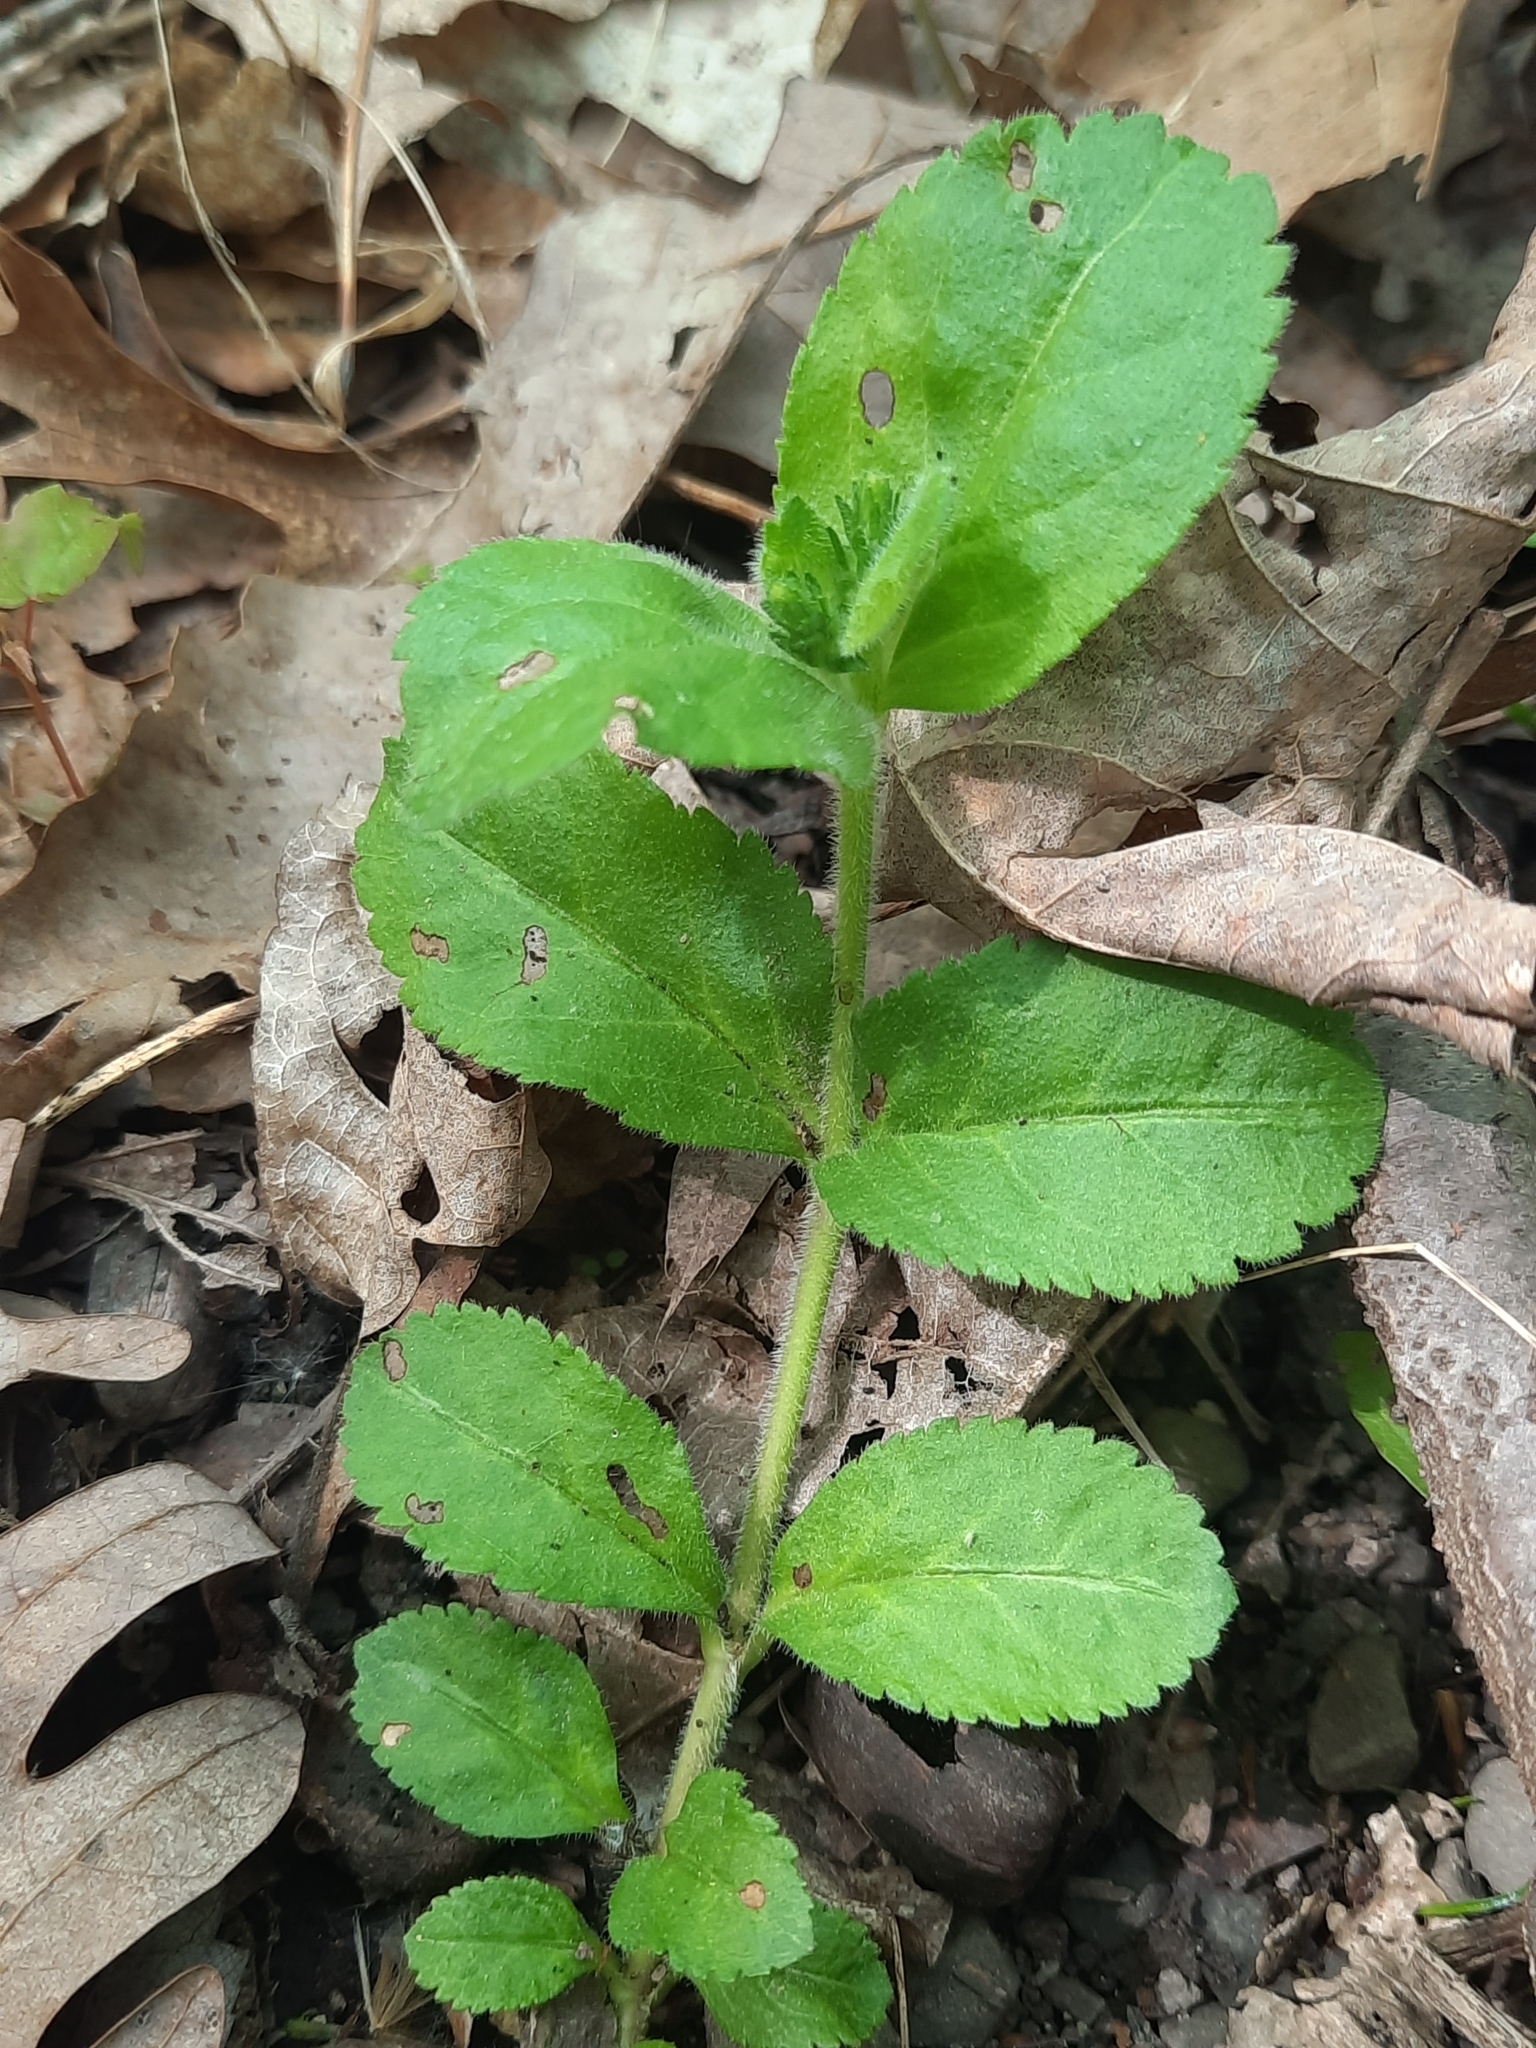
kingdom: Plantae
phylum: Tracheophyta
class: Magnoliopsida
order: Lamiales
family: Plantaginaceae
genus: Veronica
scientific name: Veronica officinalis
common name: Common speedwell
